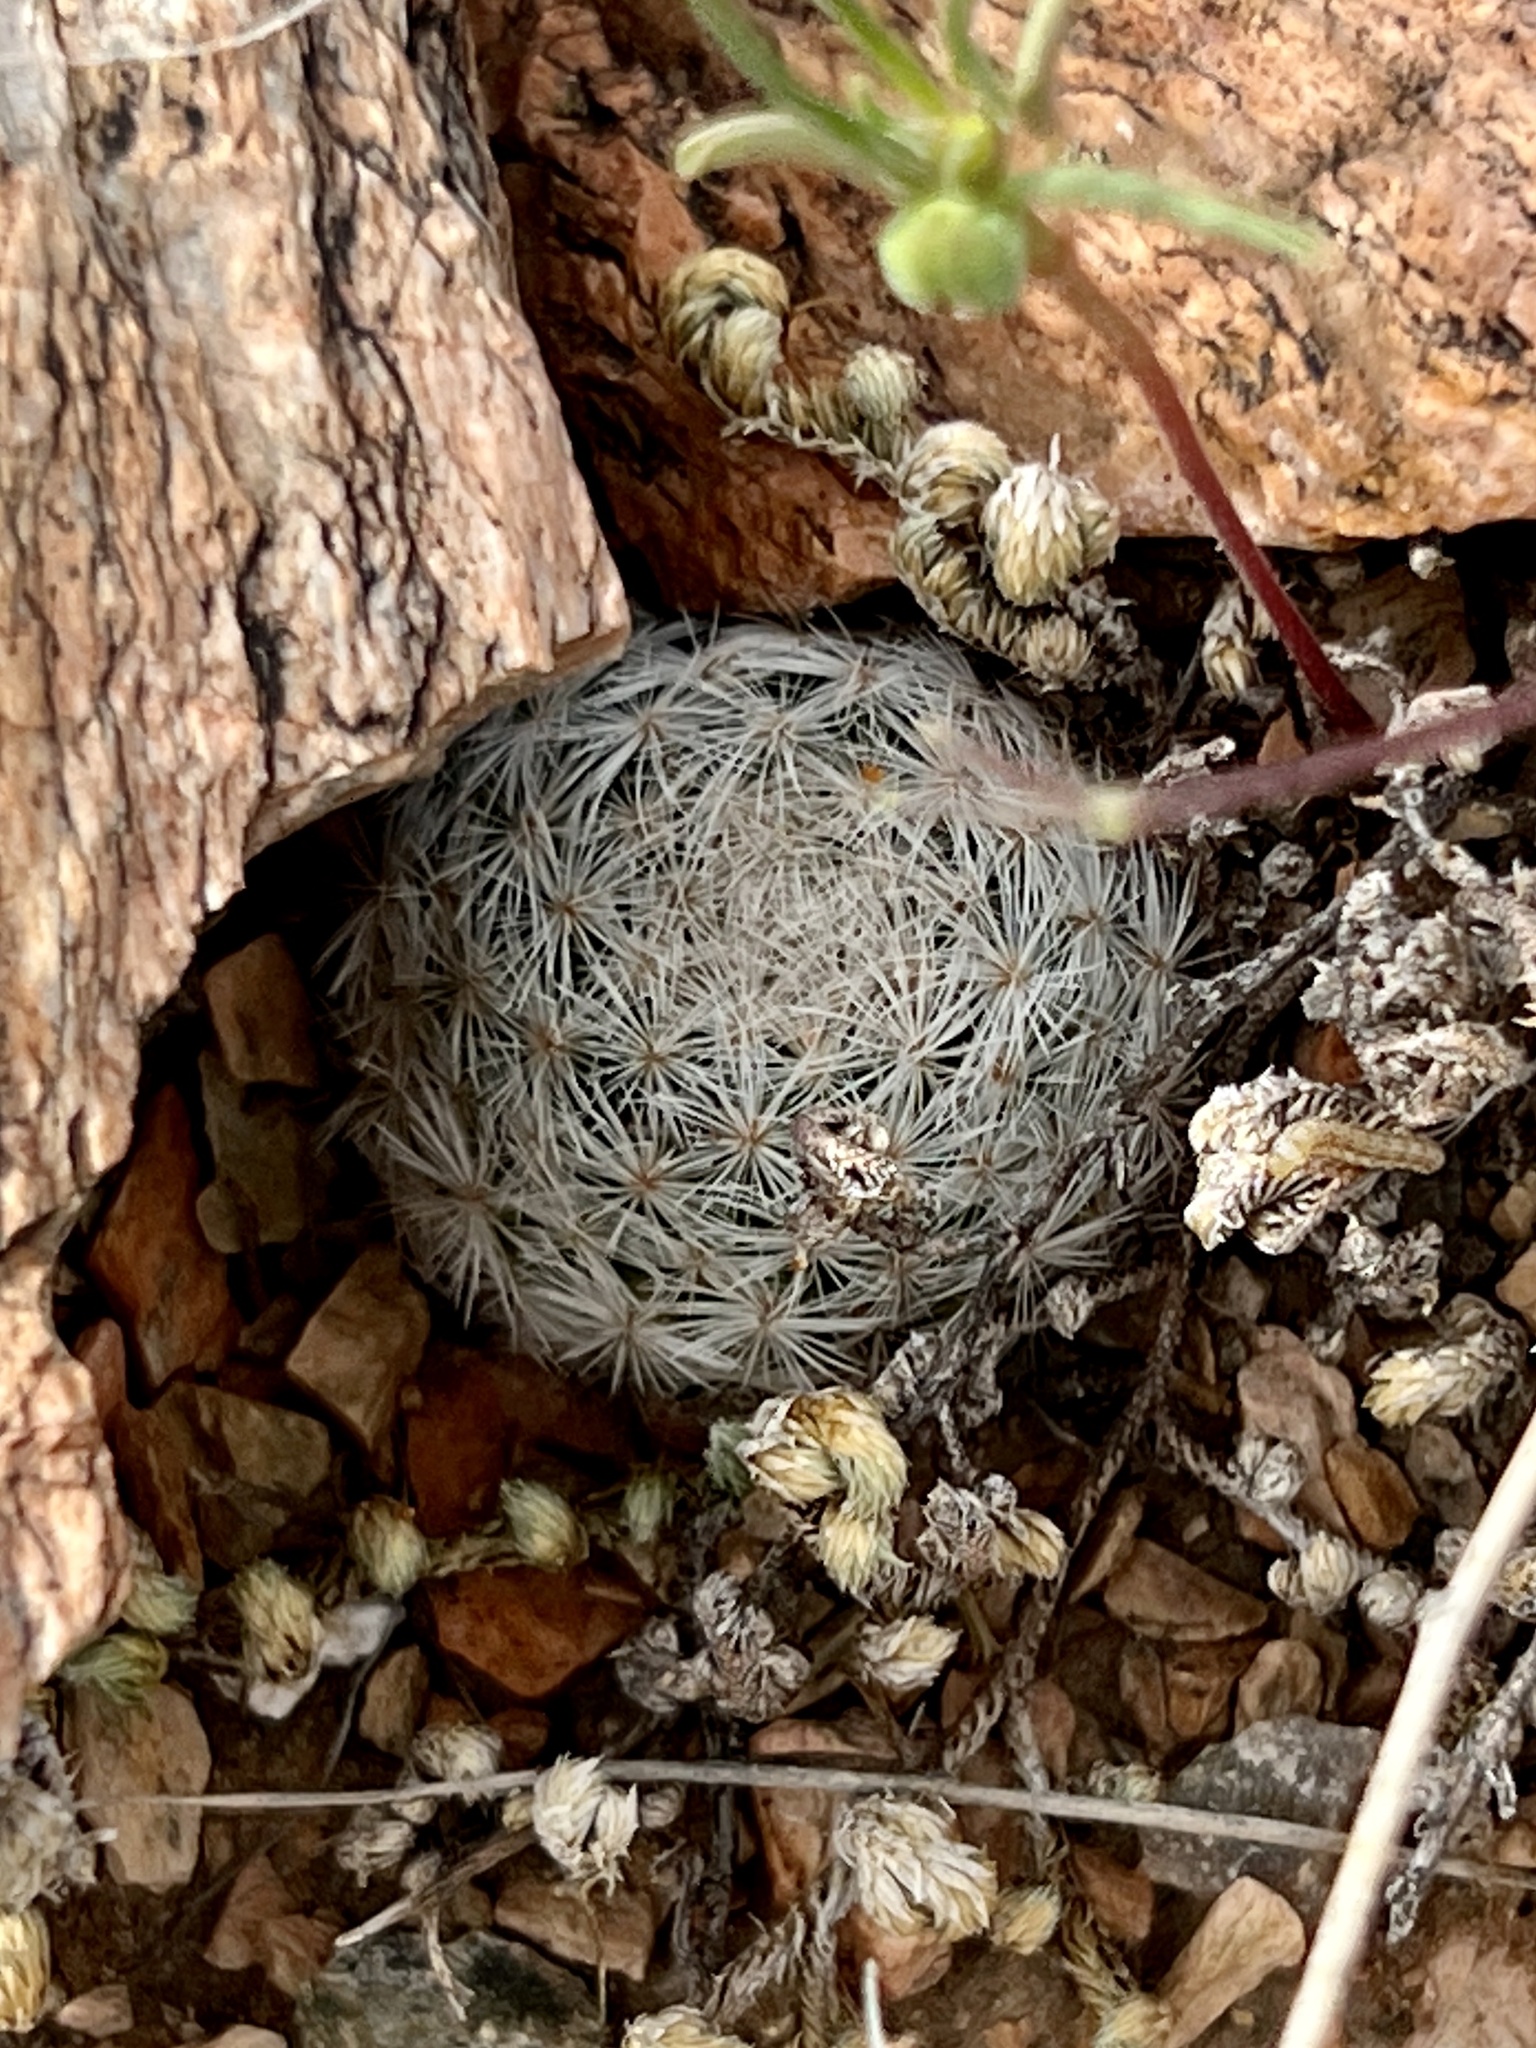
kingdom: Plantae
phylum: Tracheophyta
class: Magnoliopsida
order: Caryophyllales
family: Cactaceae
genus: Mammillaria
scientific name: Mammillaria lasiacantha
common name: Lace-spine nipple cactus
